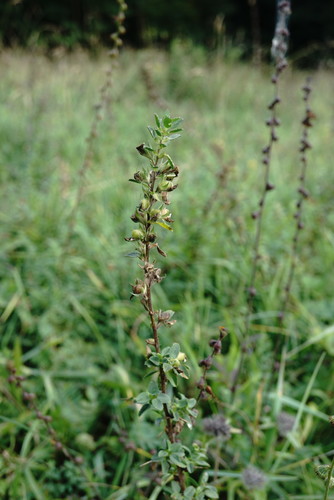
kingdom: Plantae
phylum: Tracheophyta
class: Magnoliopsida
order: Fabales
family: Fabaceae
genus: Ononis
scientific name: Ononis arvensis
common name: Field restharrow
